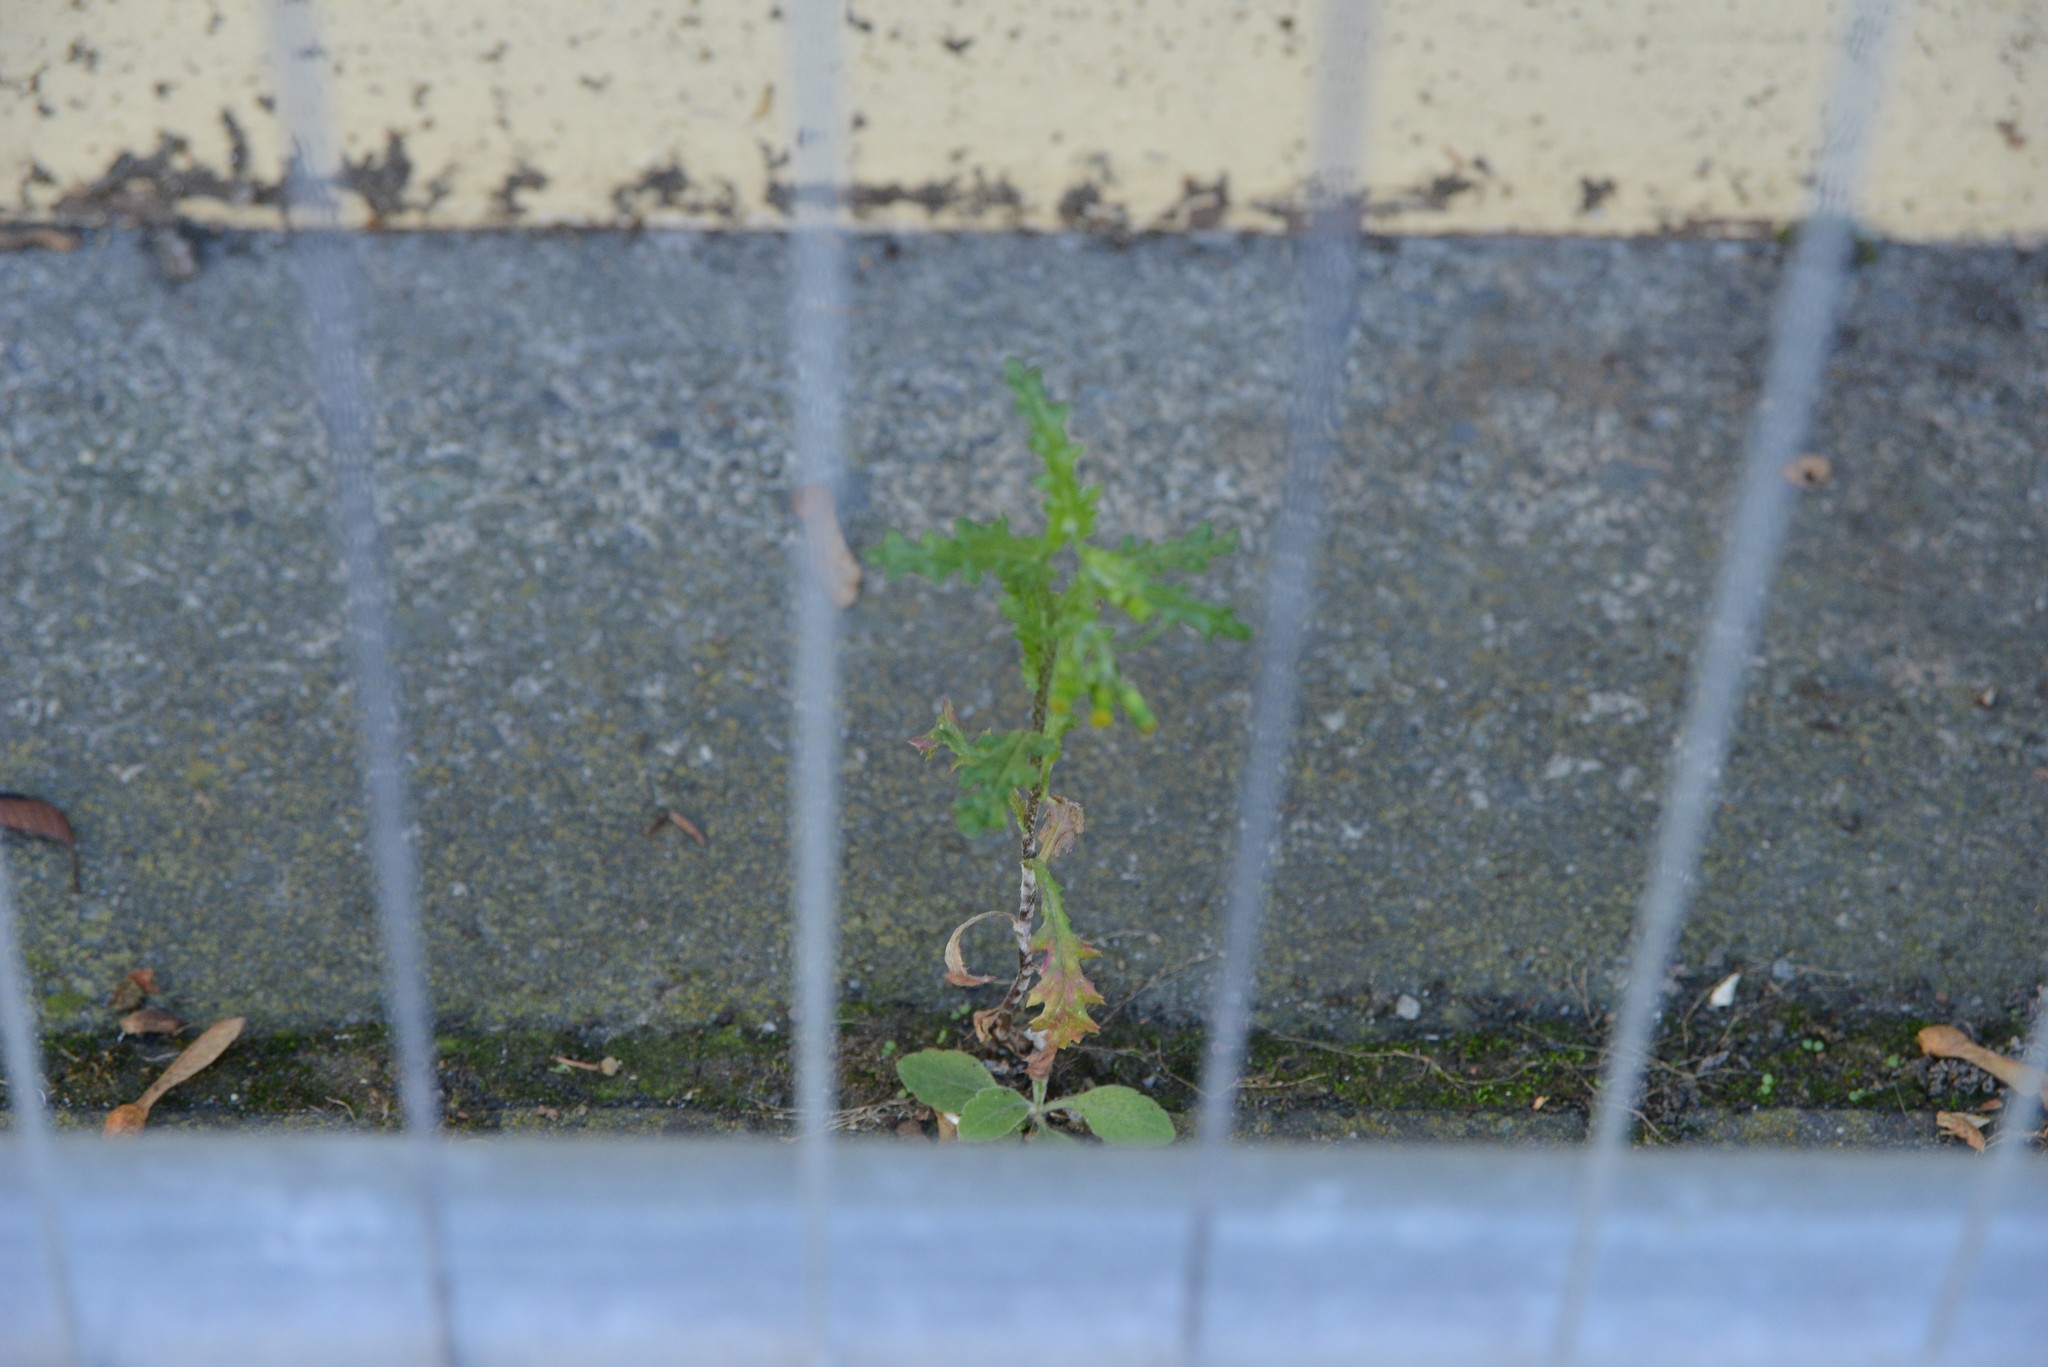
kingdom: Plantae
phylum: Tracheophyta
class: Magnoliopsida
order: Asterales
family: Asteraceae
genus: Senecio
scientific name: Senecio vulgaris
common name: Old-man-in-the-spring
